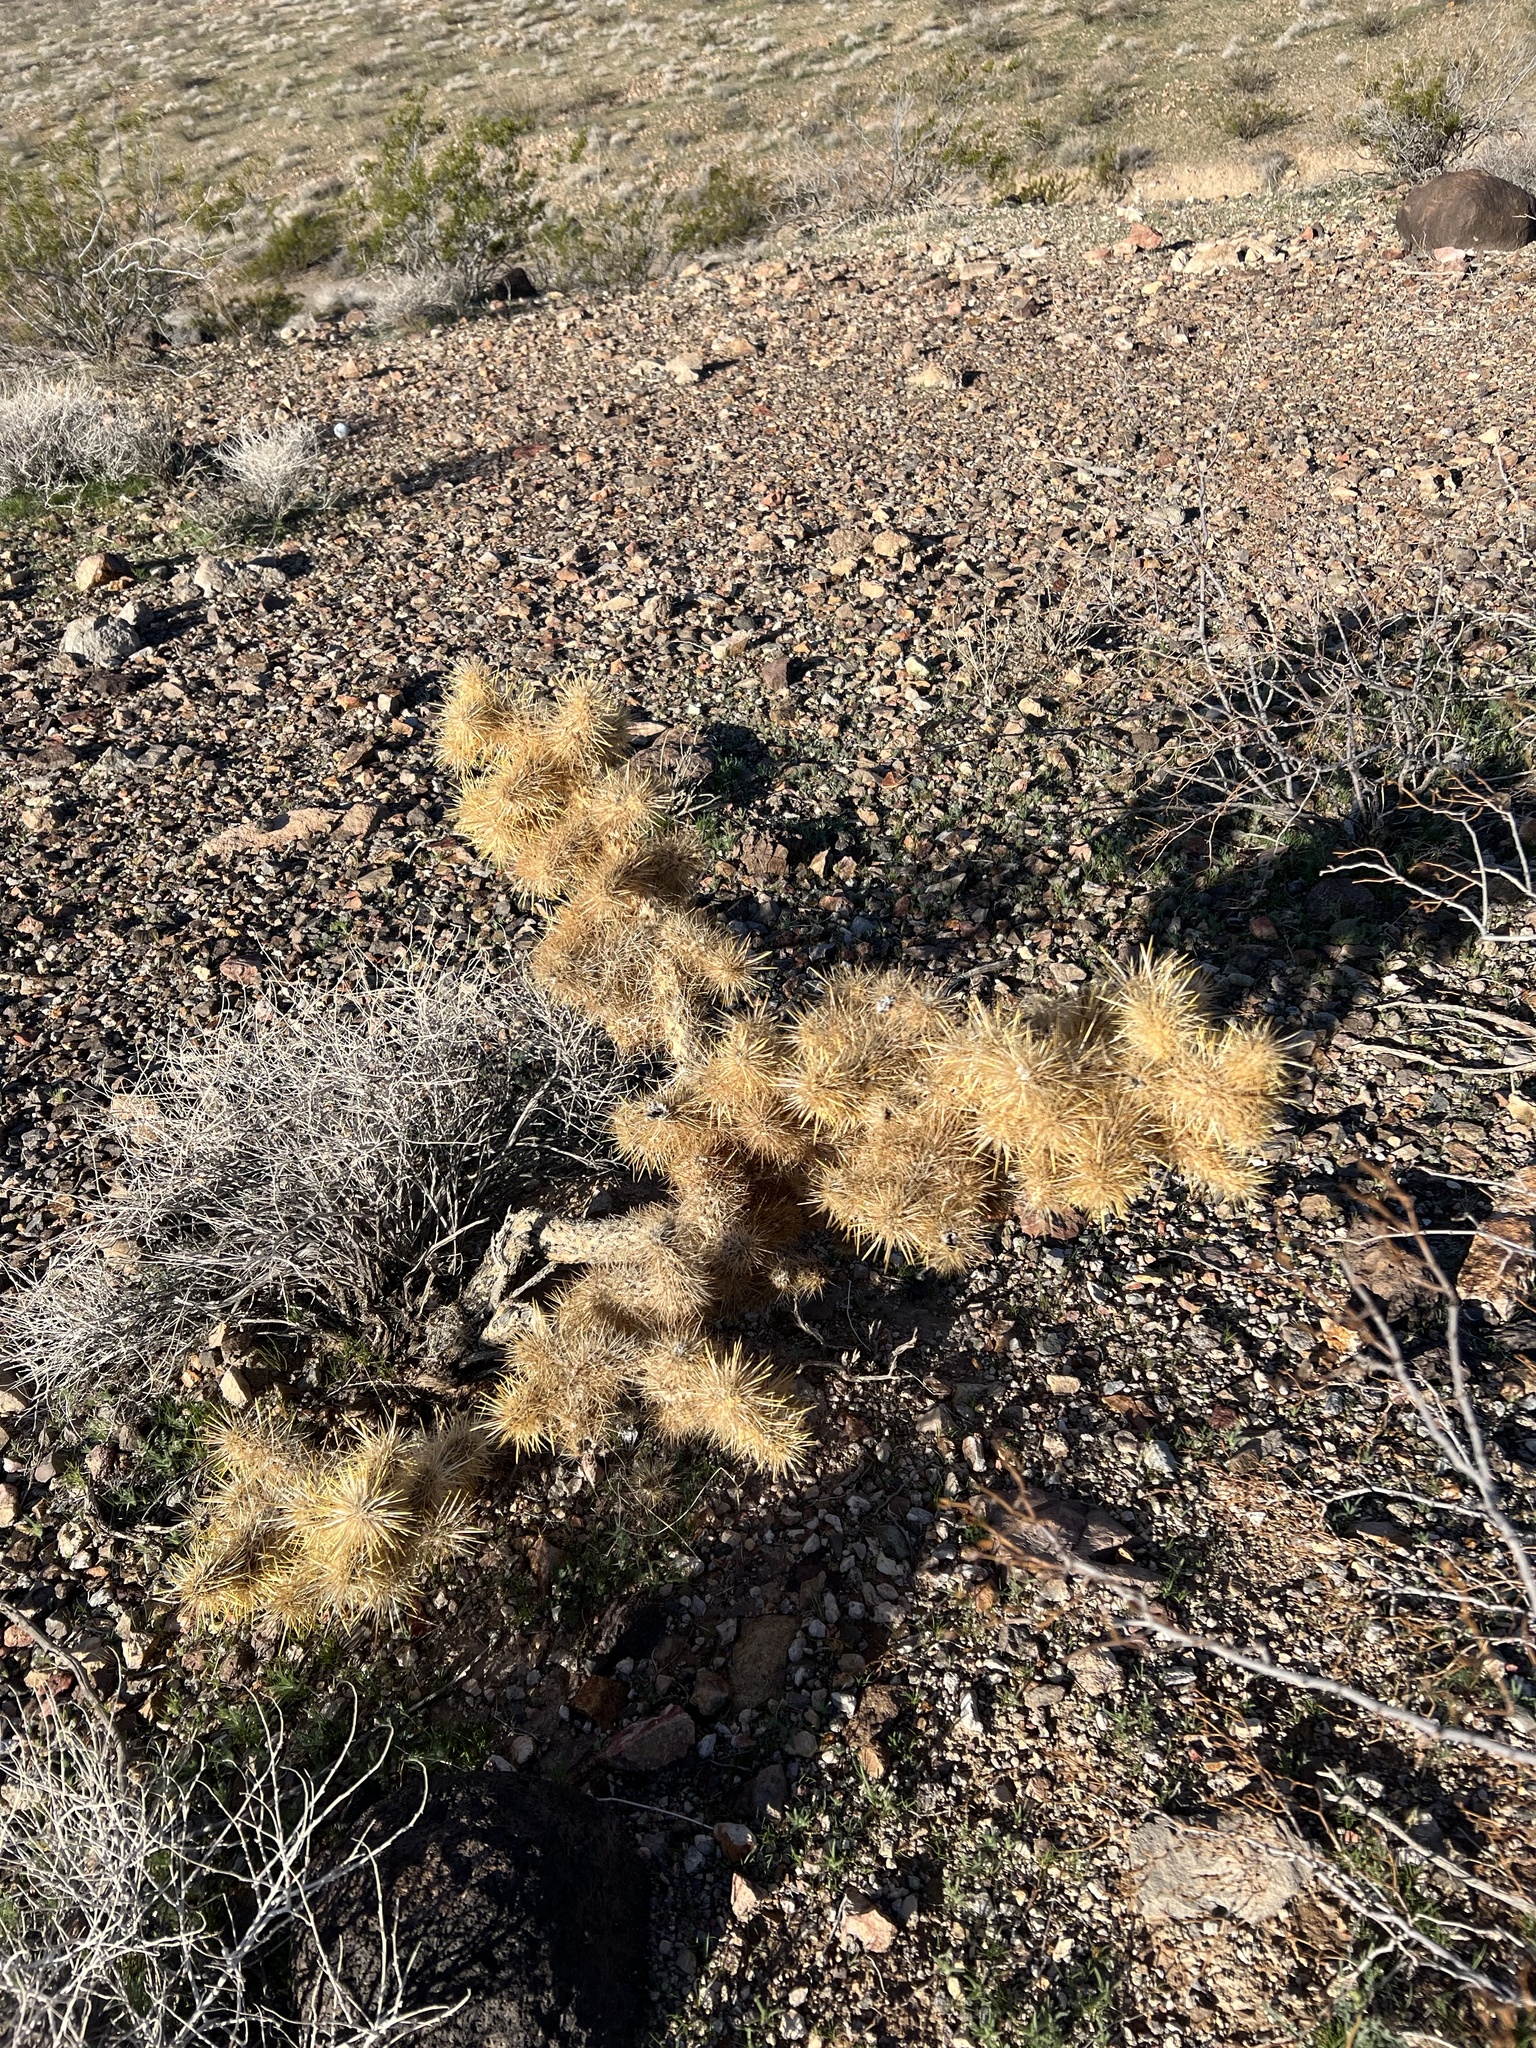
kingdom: Plantae
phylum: Tracheophyta
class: Magnoliopsida
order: Caryophyllales
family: Cactaceae
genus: Cylindropuntia
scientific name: Cylindropuntia echinocarpa
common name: Ground cholla
